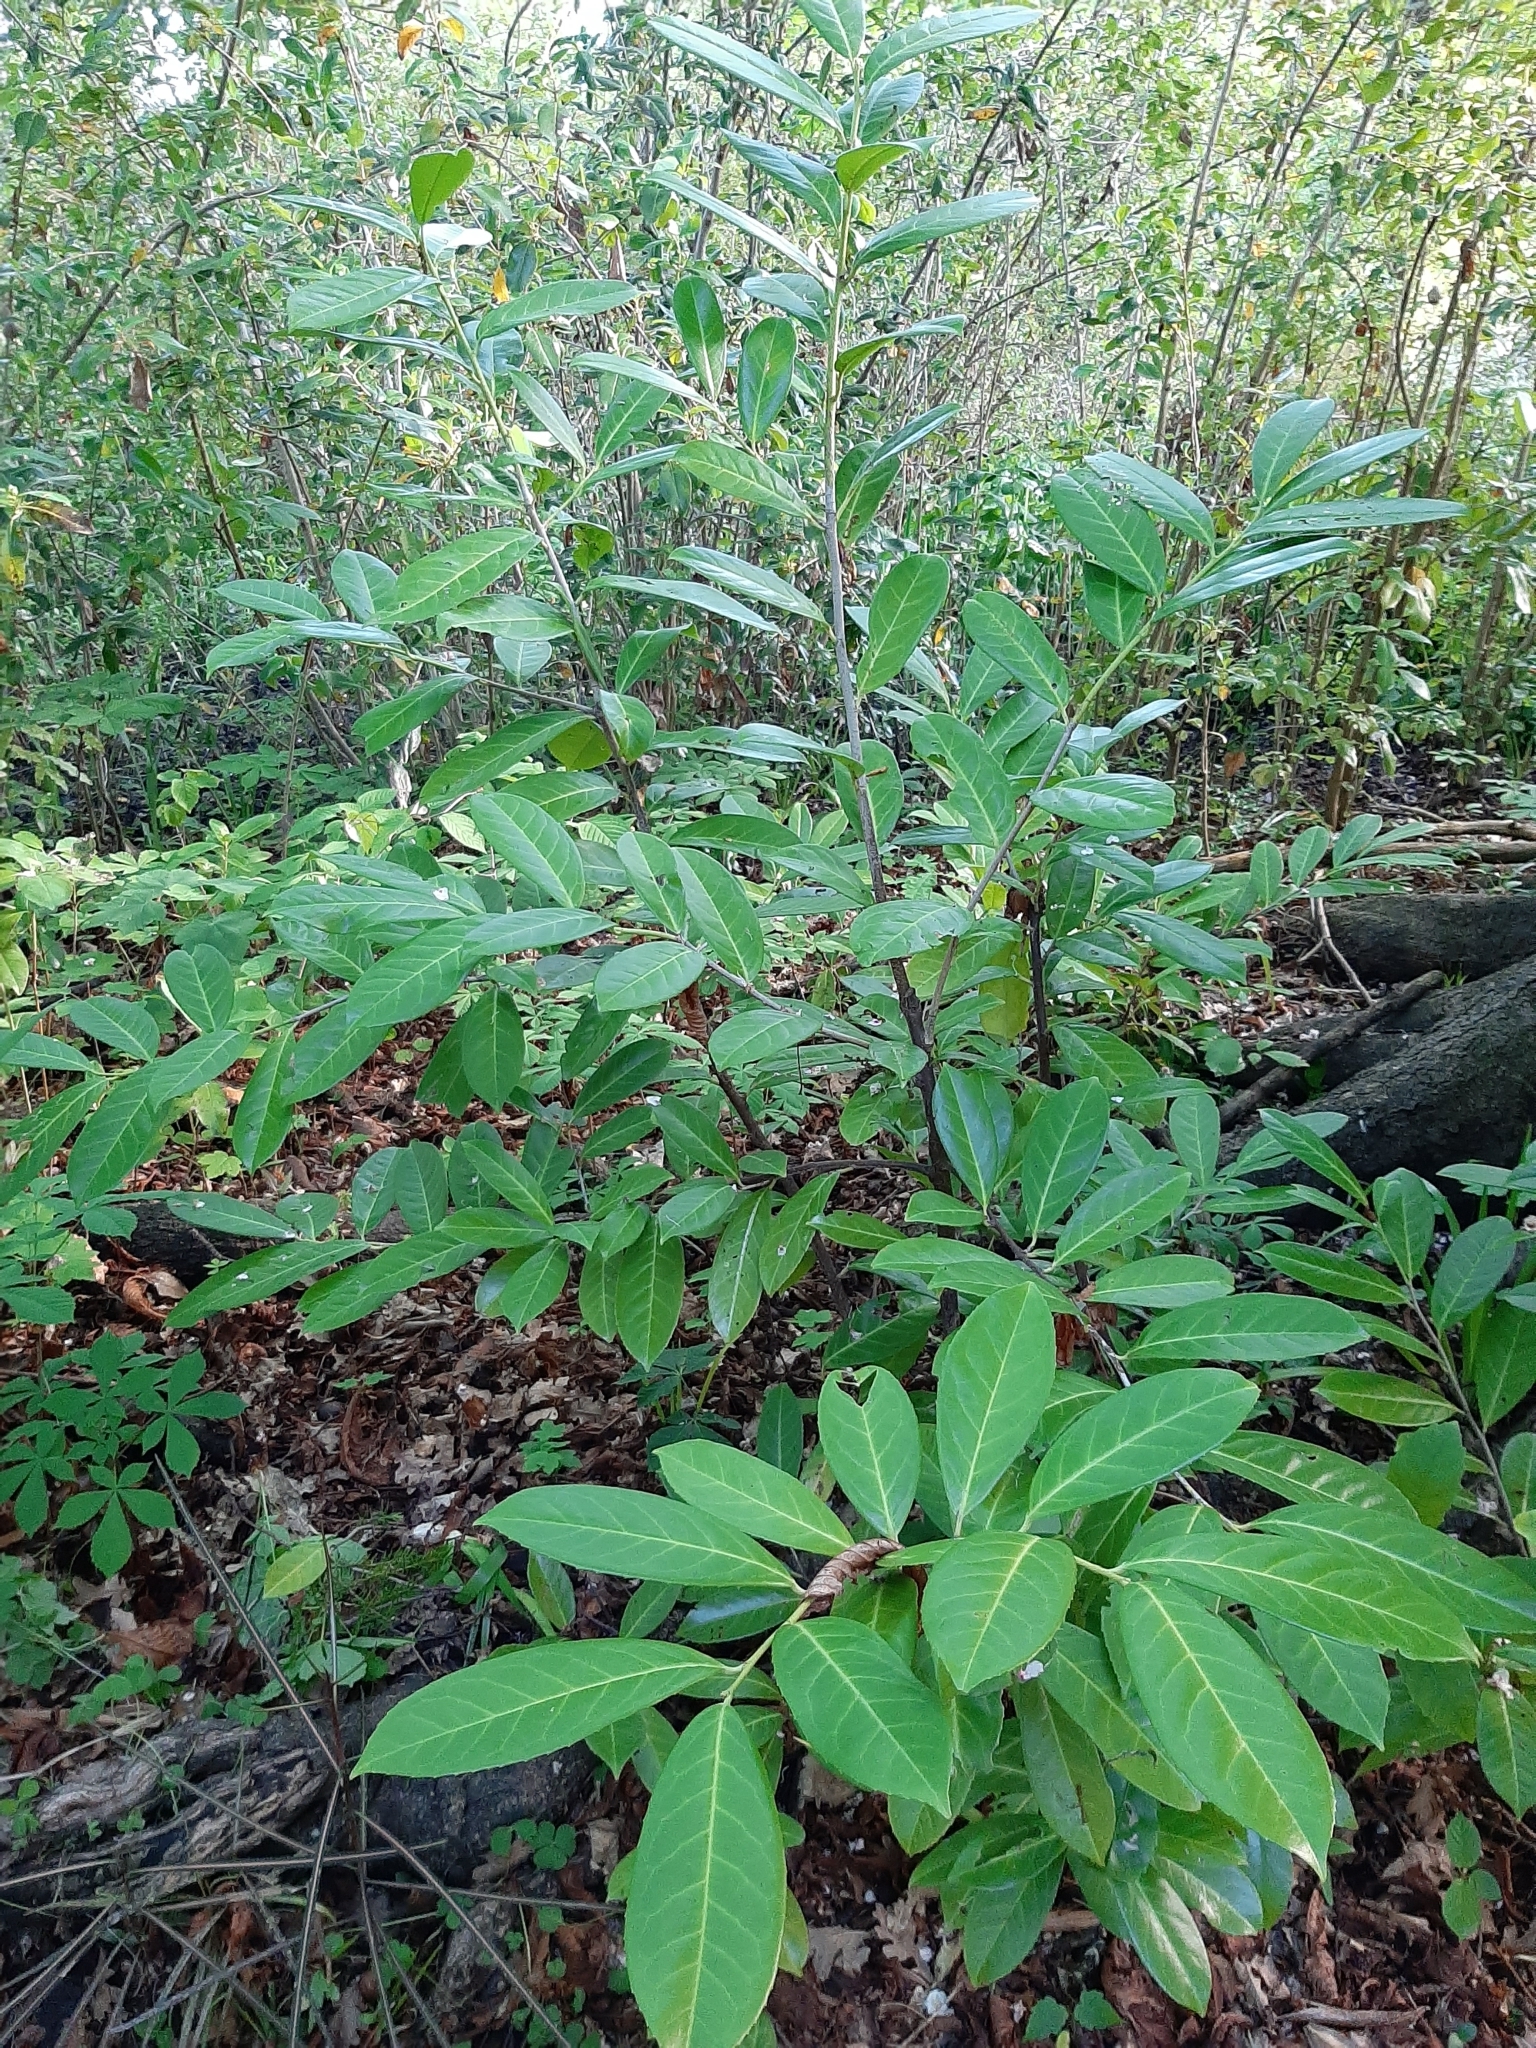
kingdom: Plantae
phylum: Tracheophyta
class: Magnoliopsida
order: Rosales
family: Rosaceae
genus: Prunus
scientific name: Prunus laurocerasus
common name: Cherry laurel
